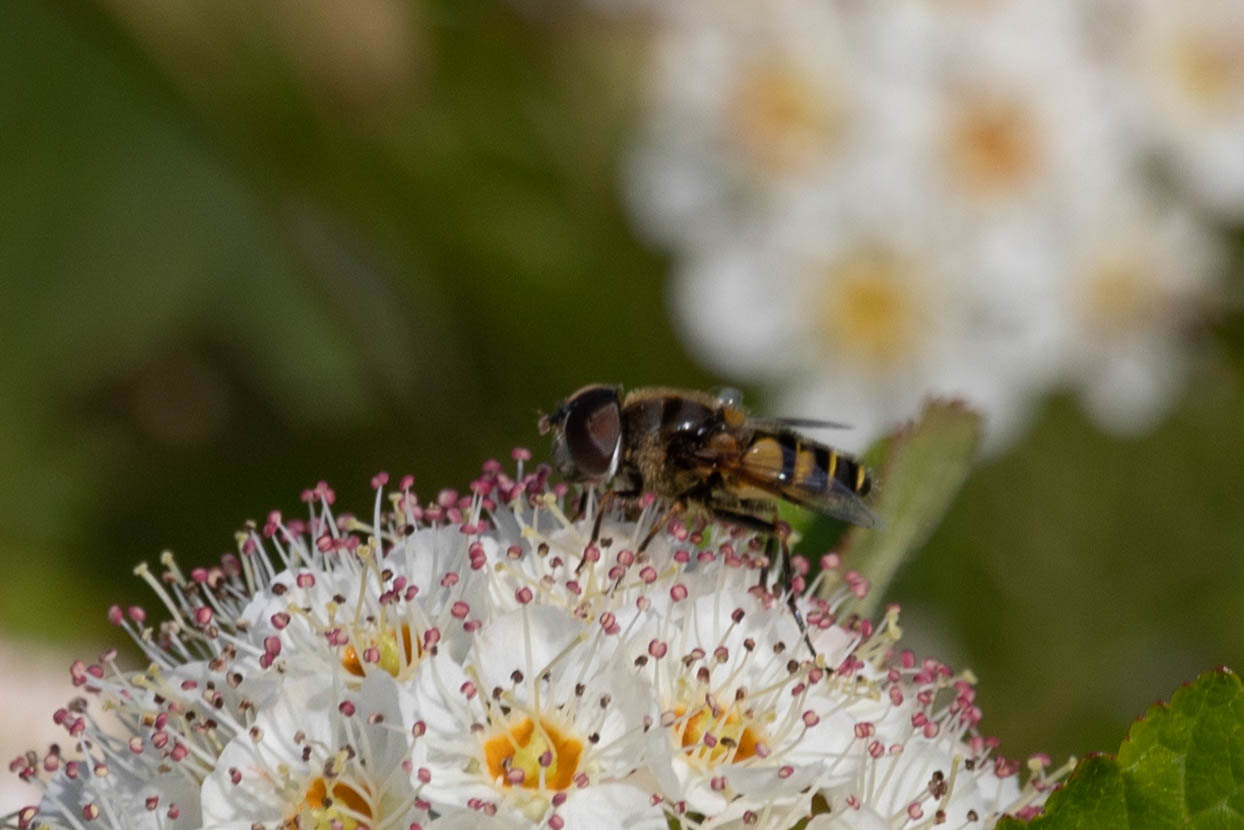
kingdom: Animalia
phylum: Arthropoda
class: Insecta
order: Diptera
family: Syrphidae
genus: Eristalis
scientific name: Eristalis transversa
